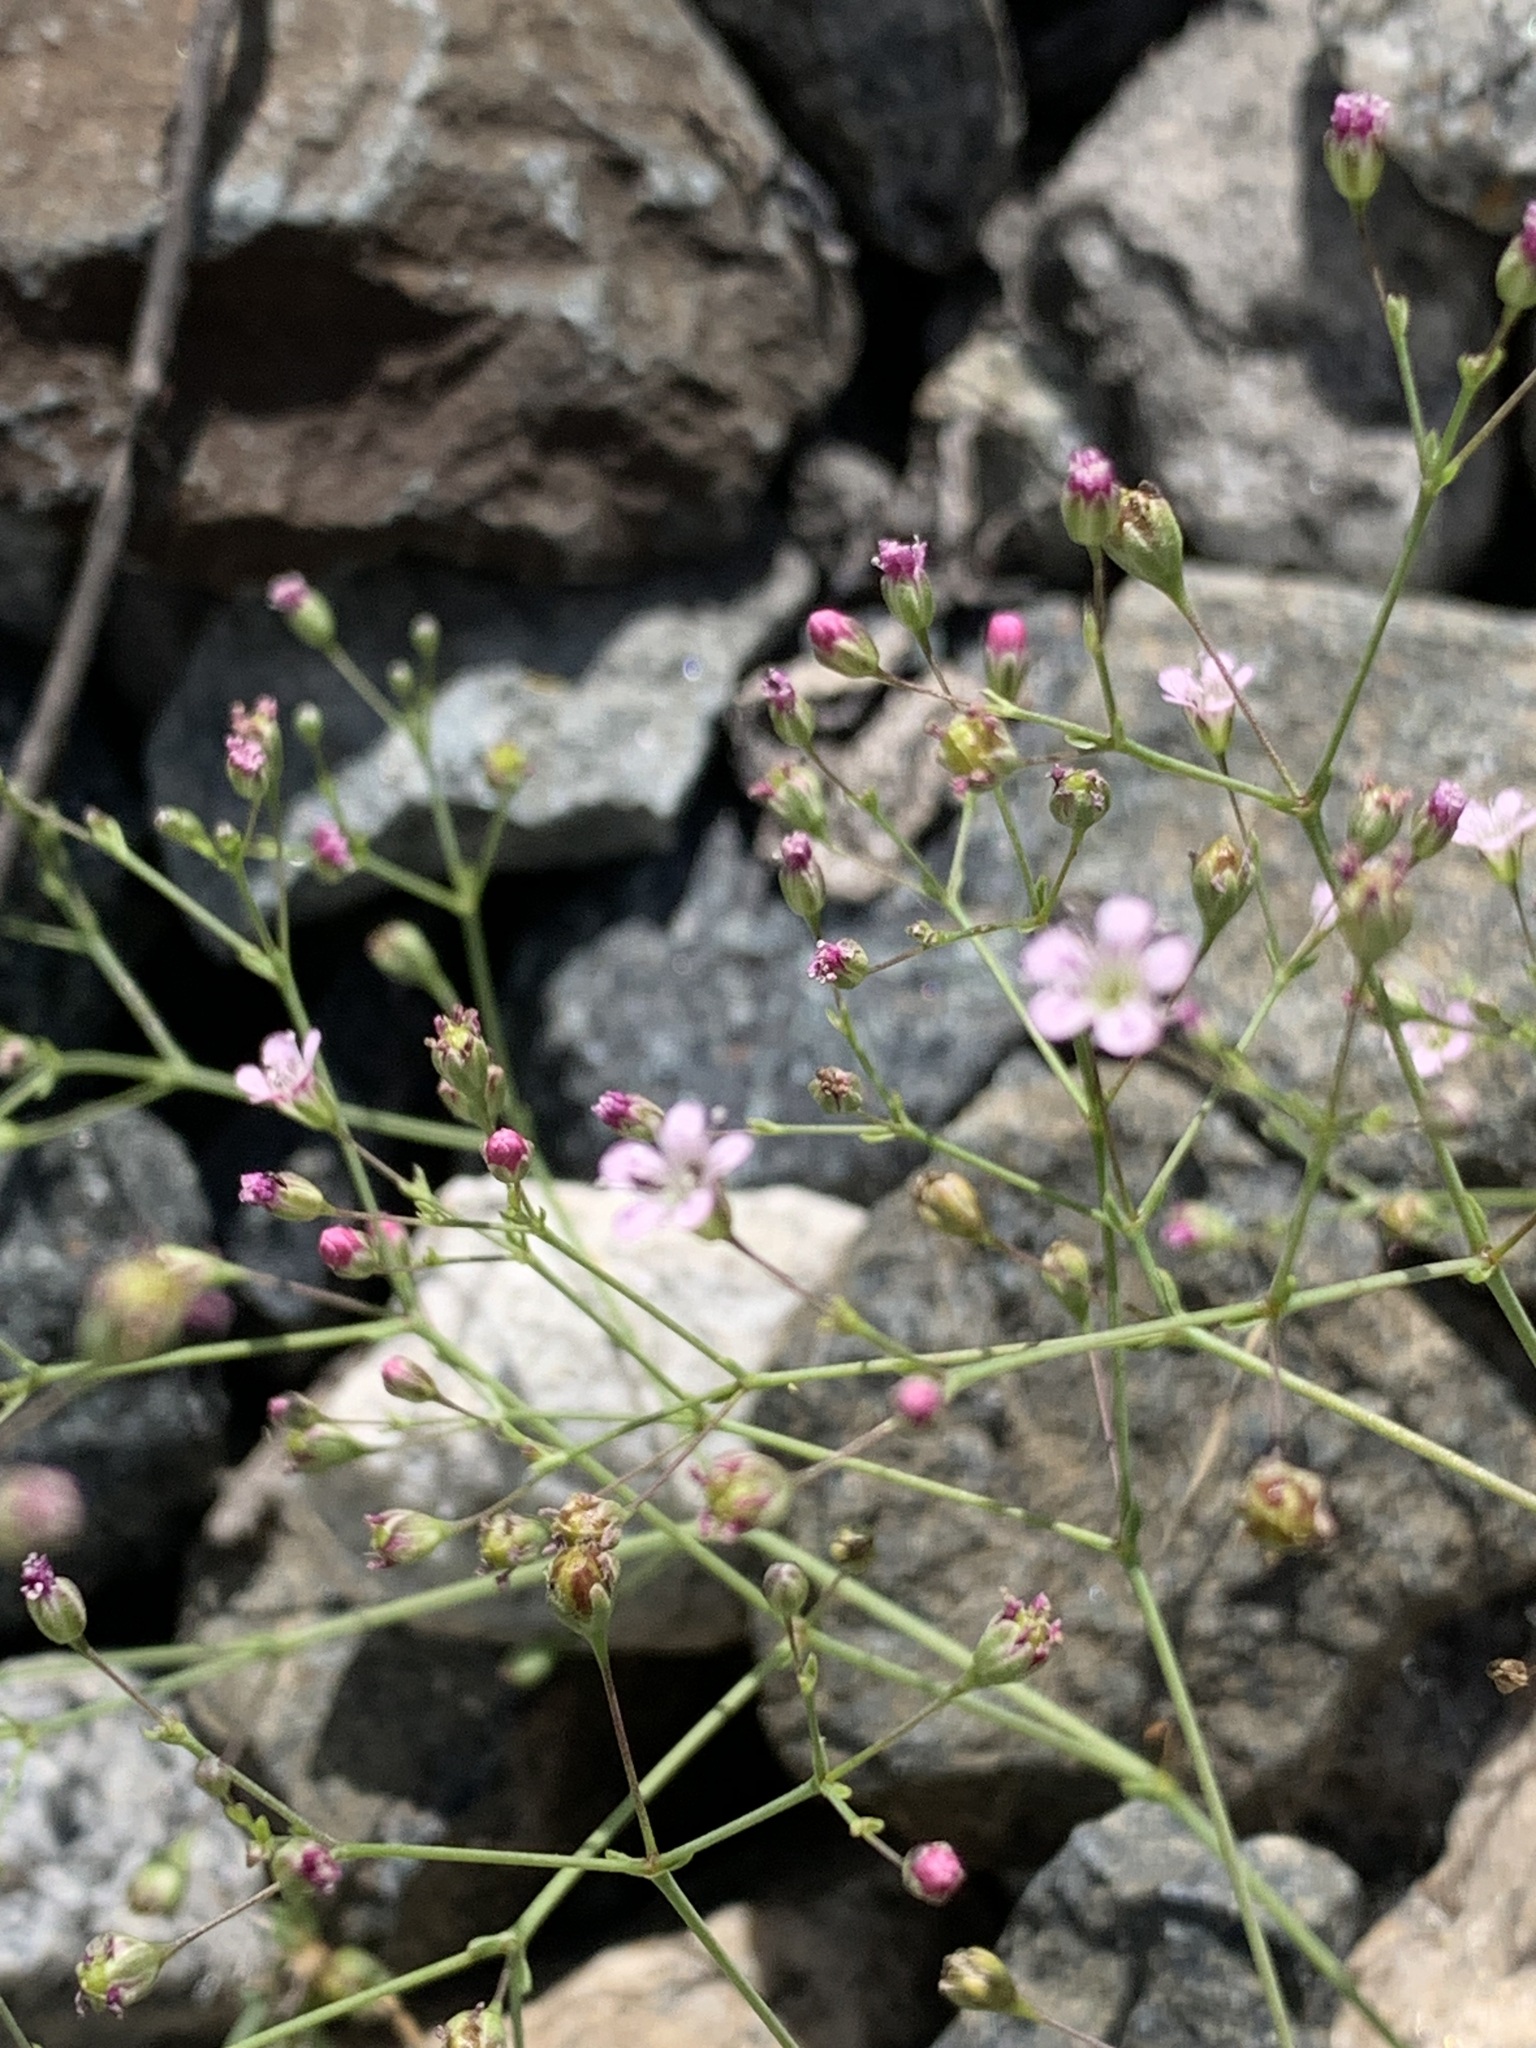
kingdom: Plantae
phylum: Tracheophyta
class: Magnoliopsida
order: Caryophyllales
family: Caryophyllaceae
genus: Gypsophila
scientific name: Gypsophila perfoliata
